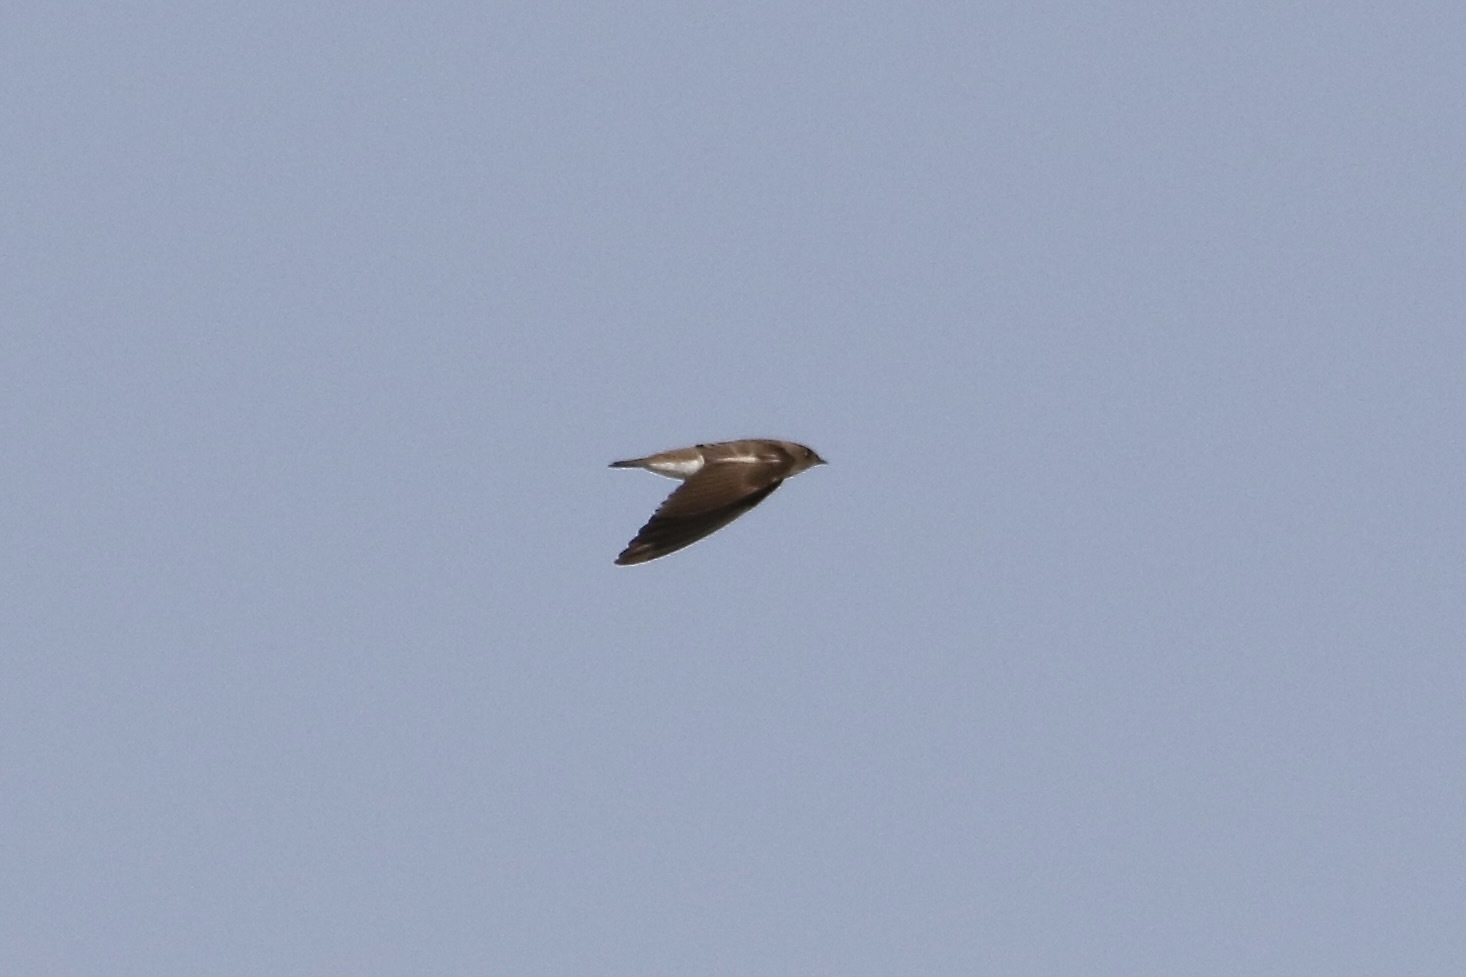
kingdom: Animalia
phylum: Chordata
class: Aves
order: Passeriformes
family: Hirundinidae
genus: Stelgidopteryx
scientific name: Stelgidopteryx serripennis
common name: Northern rough-winged swallow
